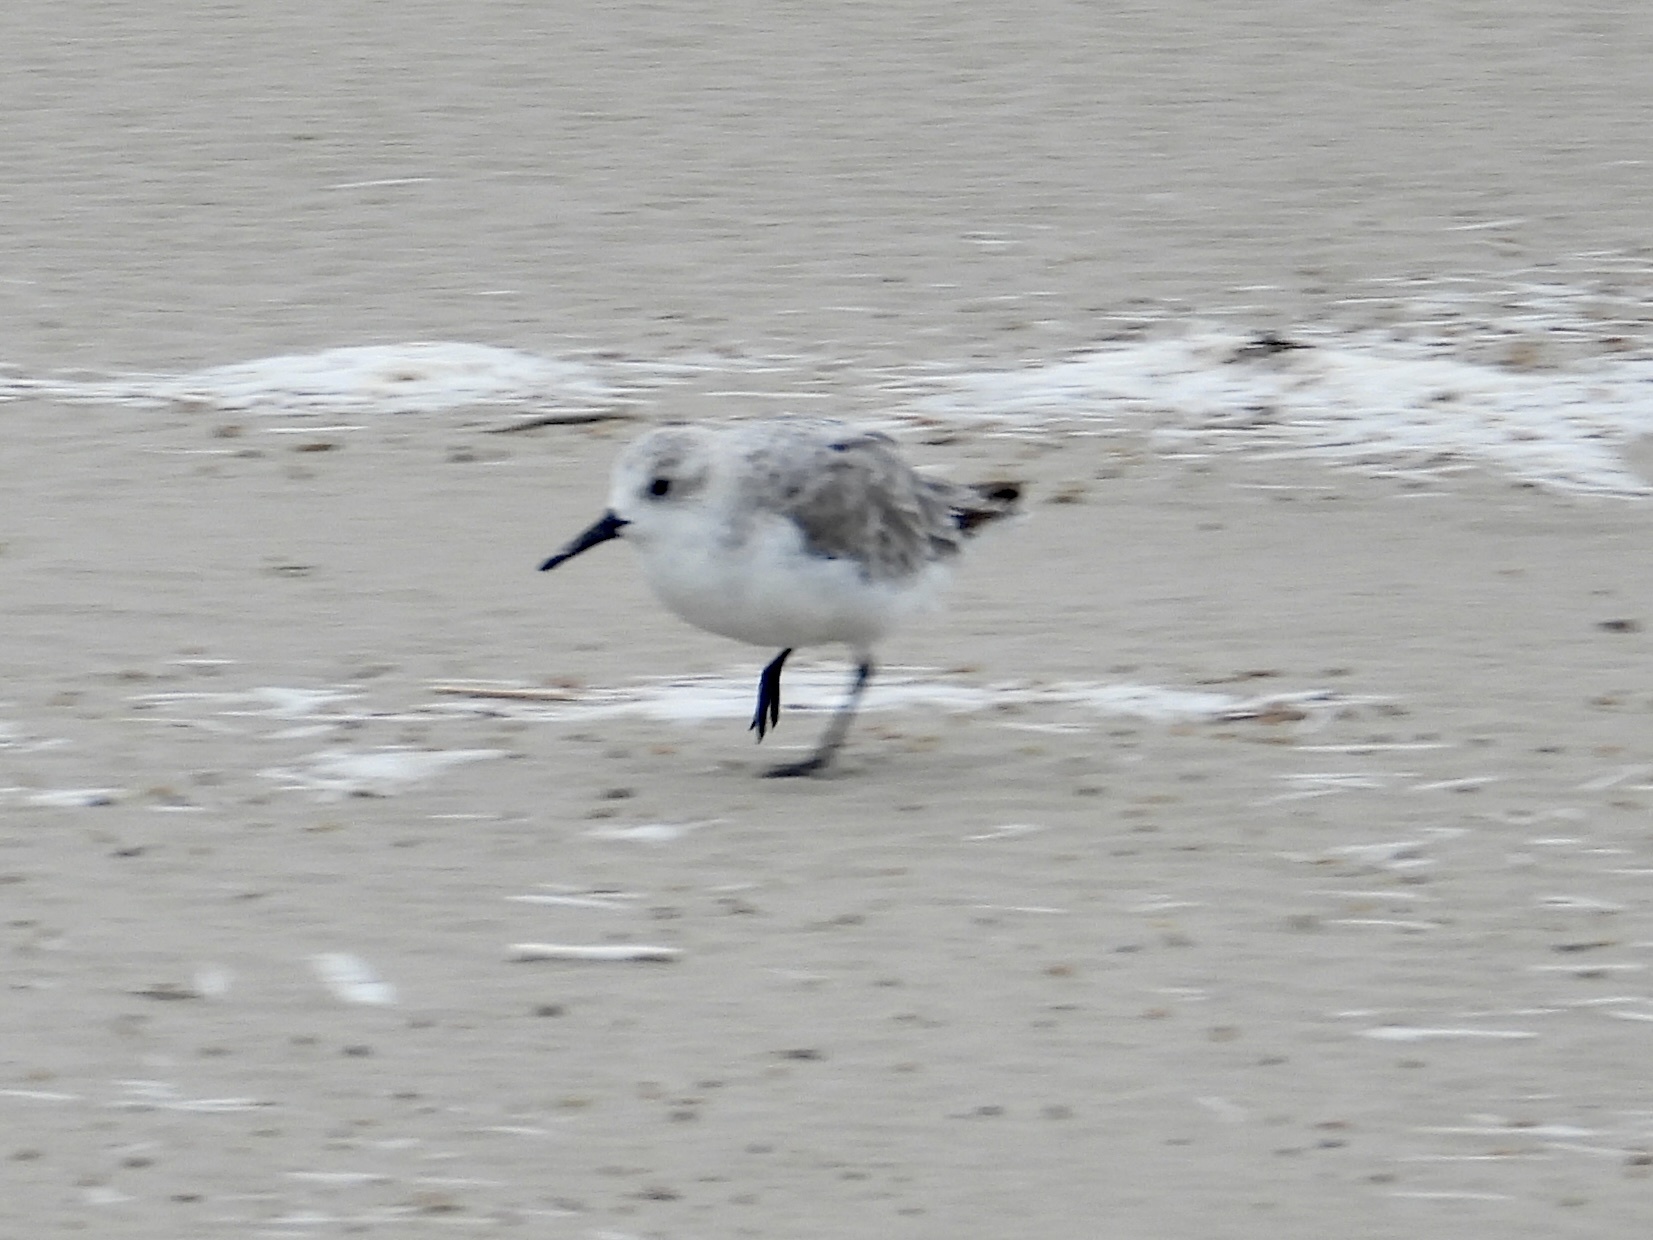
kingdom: Animalia
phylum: Chordata
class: Aves
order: Charadriiformes
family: Scolopacidae
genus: Calidris
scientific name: Calidris alba
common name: Sanderling
